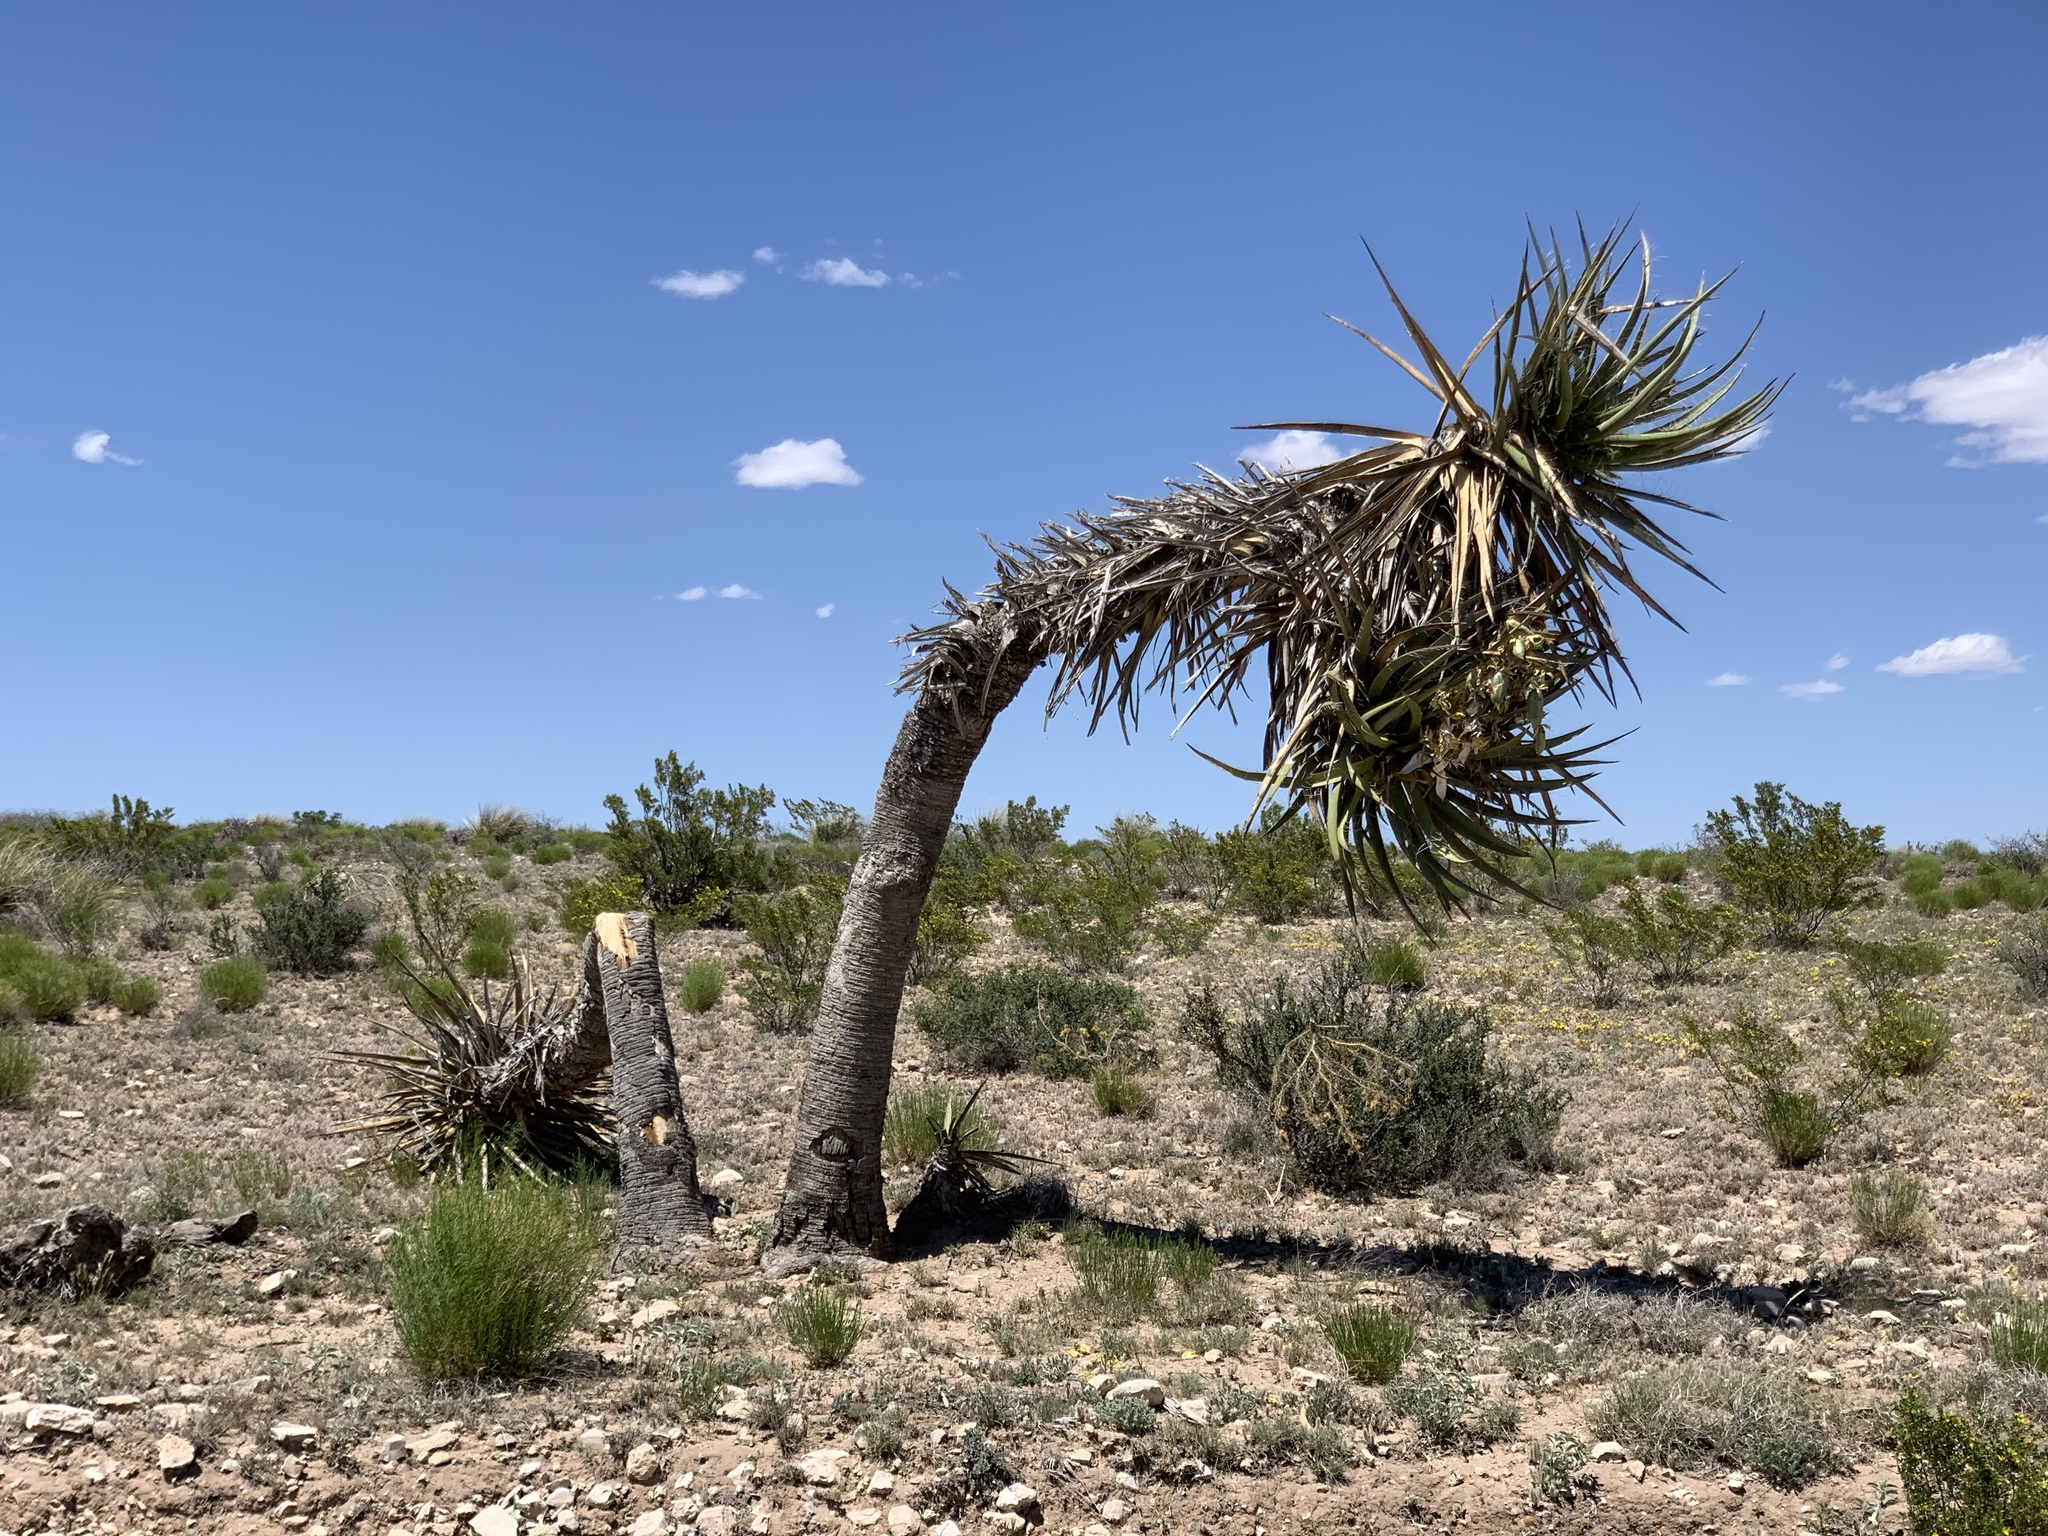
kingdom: Plantae
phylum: Tracheophyta
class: Liliopsida
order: Asparagales
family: Asparagaceae
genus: Yucca
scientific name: Yucca treculiana
